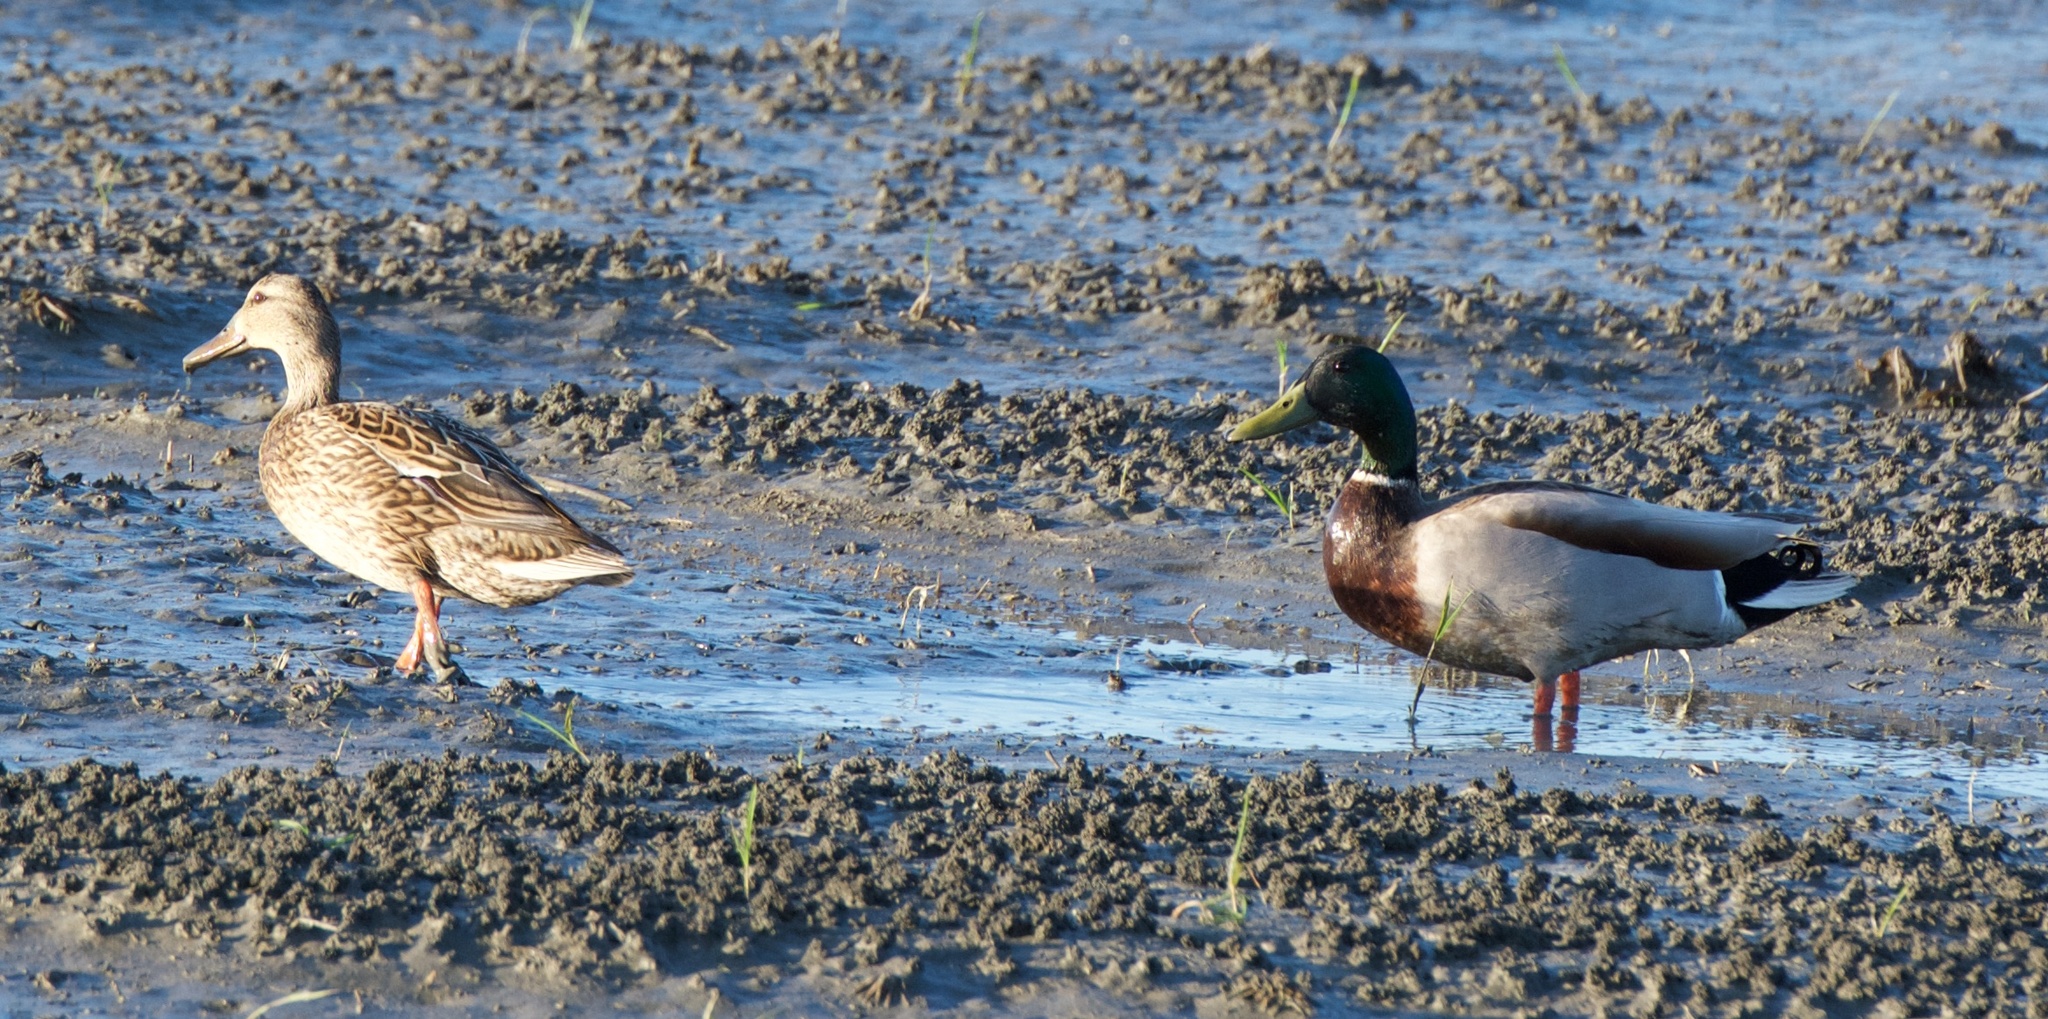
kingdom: Animalia
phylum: Chordata
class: Aves
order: Anseriformes
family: Anatidae
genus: Anas
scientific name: Anas platyrhynchos
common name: Mallard
